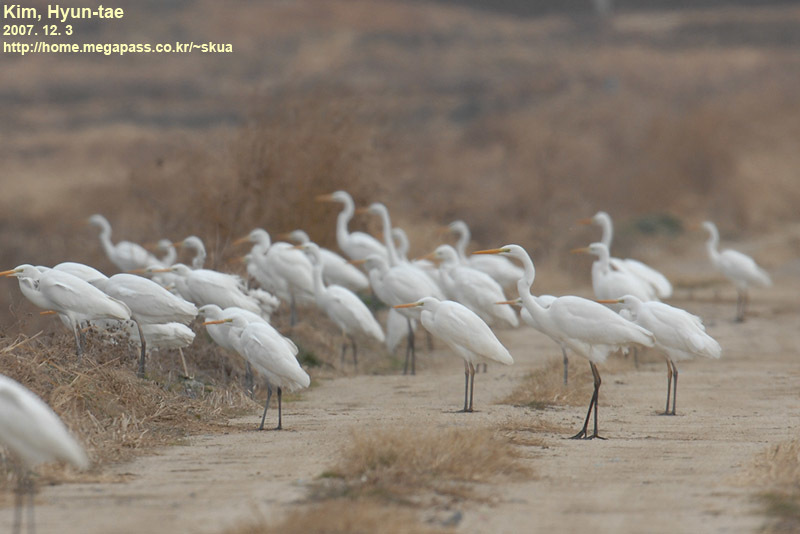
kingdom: Animalia
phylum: Chordata
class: Aves
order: Pelecaniformes
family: Ardeidae
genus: Ardea
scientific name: Ardea alba
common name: Great egret
